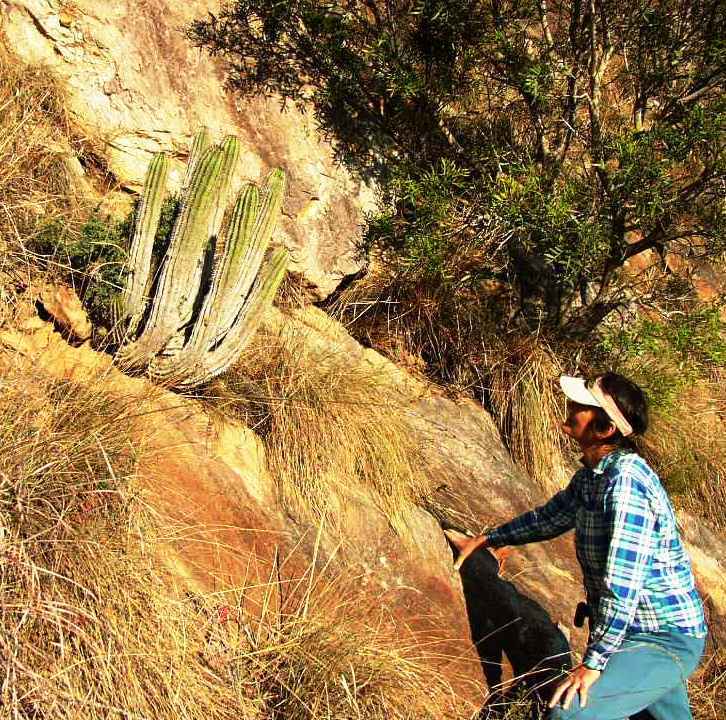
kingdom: Plantae
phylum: Tracheophyta
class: Magnoliopsida
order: Malpighiales
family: Euphorbiaceae
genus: Euphorbia
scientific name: Euphorbia polygona
